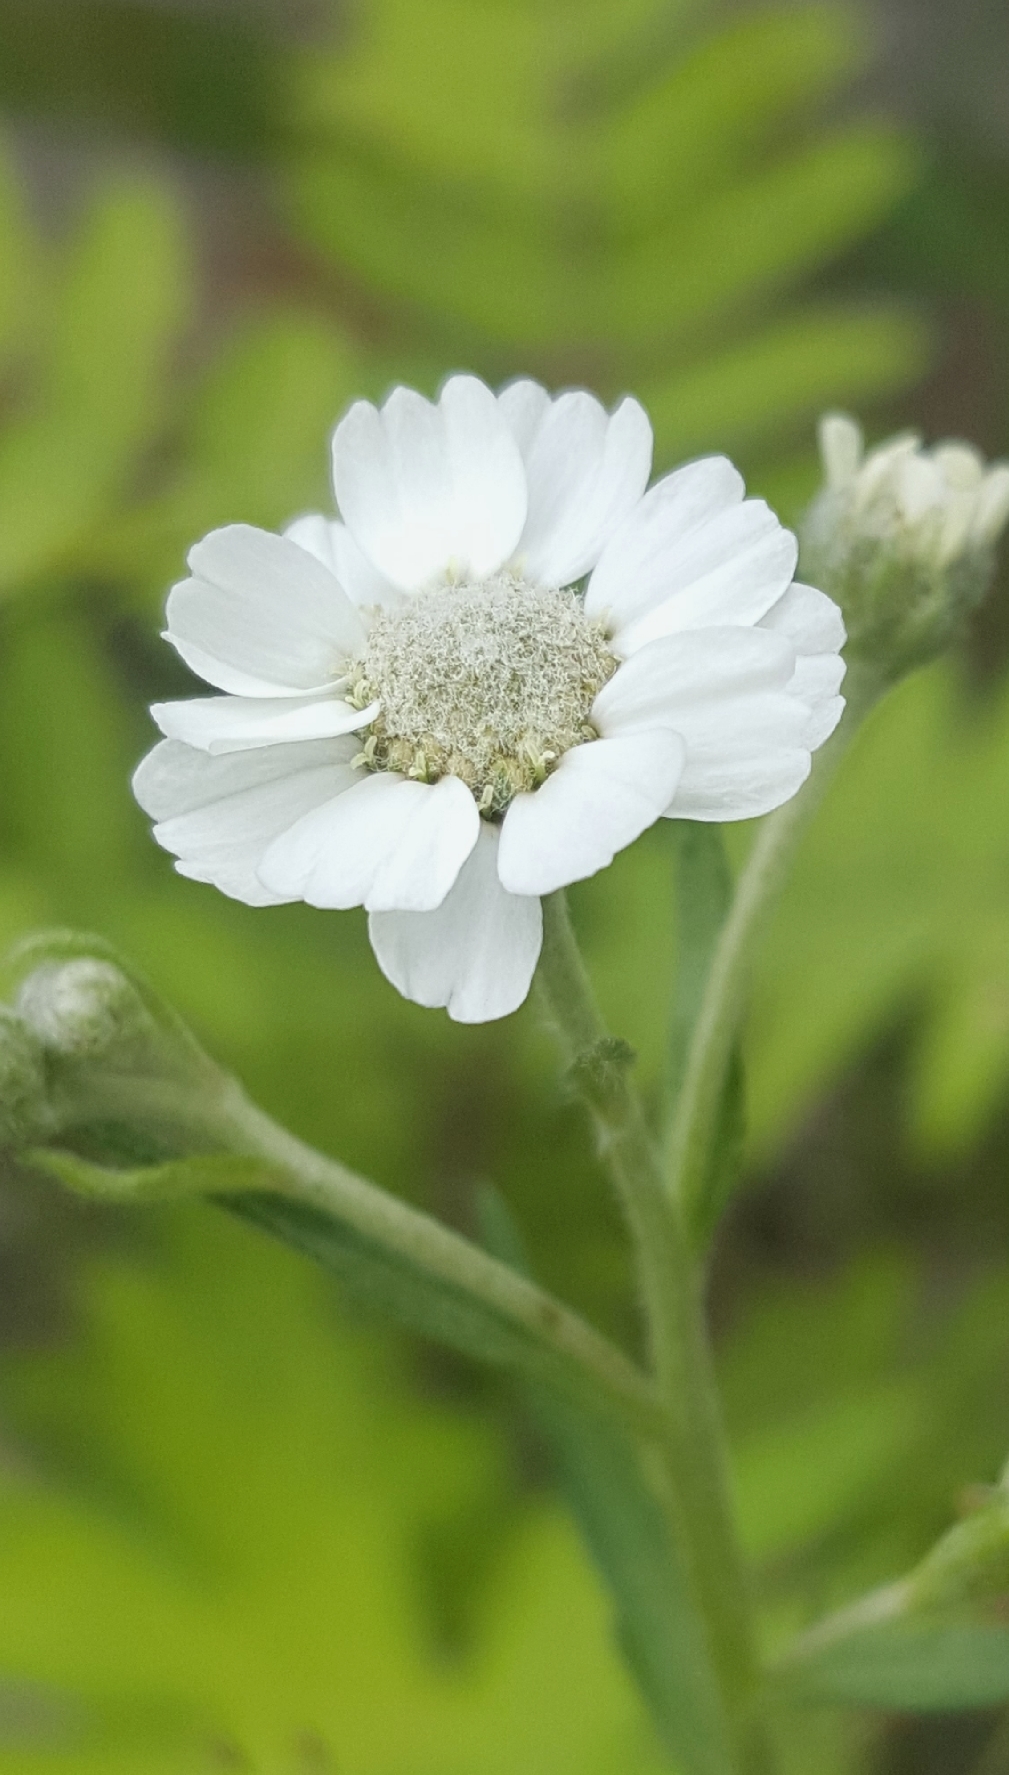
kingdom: Plantae
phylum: Tracheophyta
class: Magnoliopsida
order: Asterales
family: Asteraceae
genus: Achillea
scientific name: Achillea ptarmica
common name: Sneezeweed
